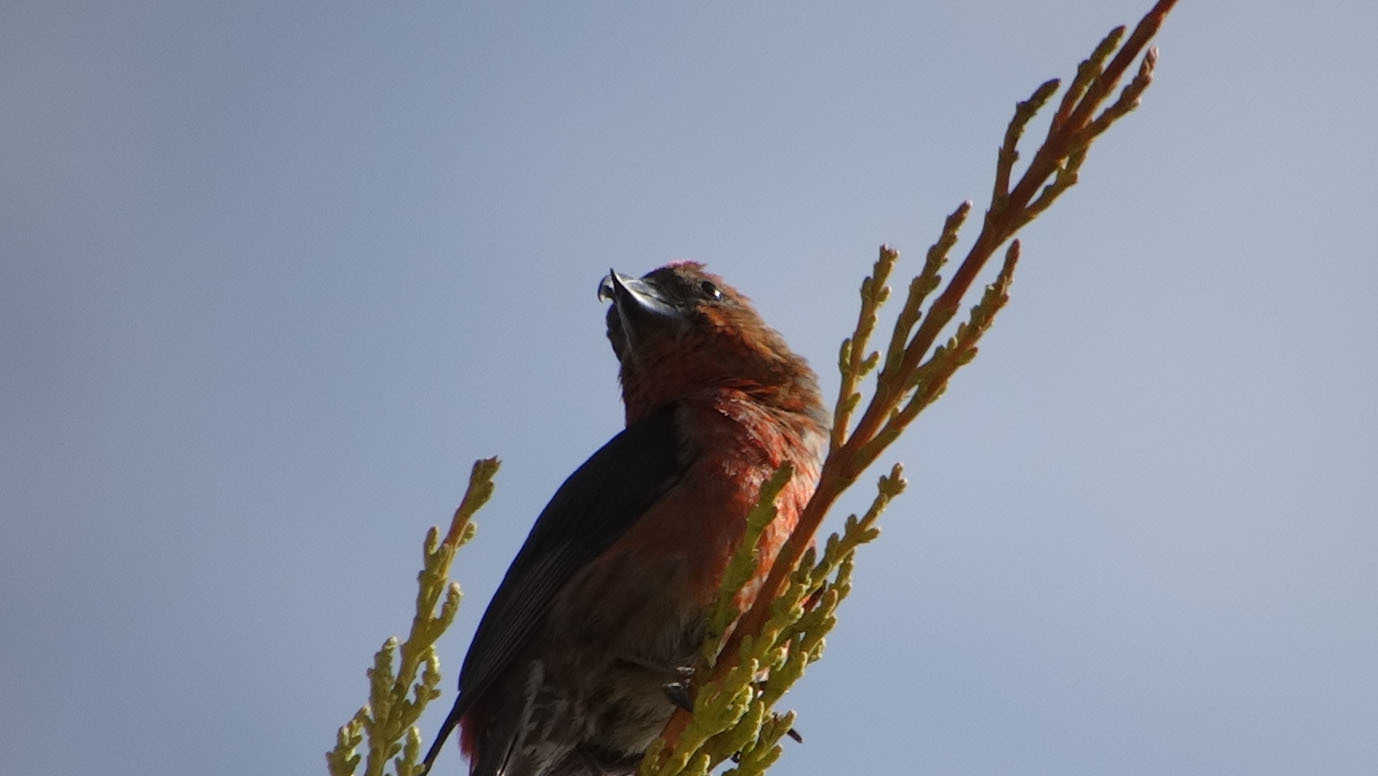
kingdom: Animalia
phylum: Chordata
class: Aves
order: Passeriformes
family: Fringillidae
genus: Loxia
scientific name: Loxia curvirostra
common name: Red crossbill
